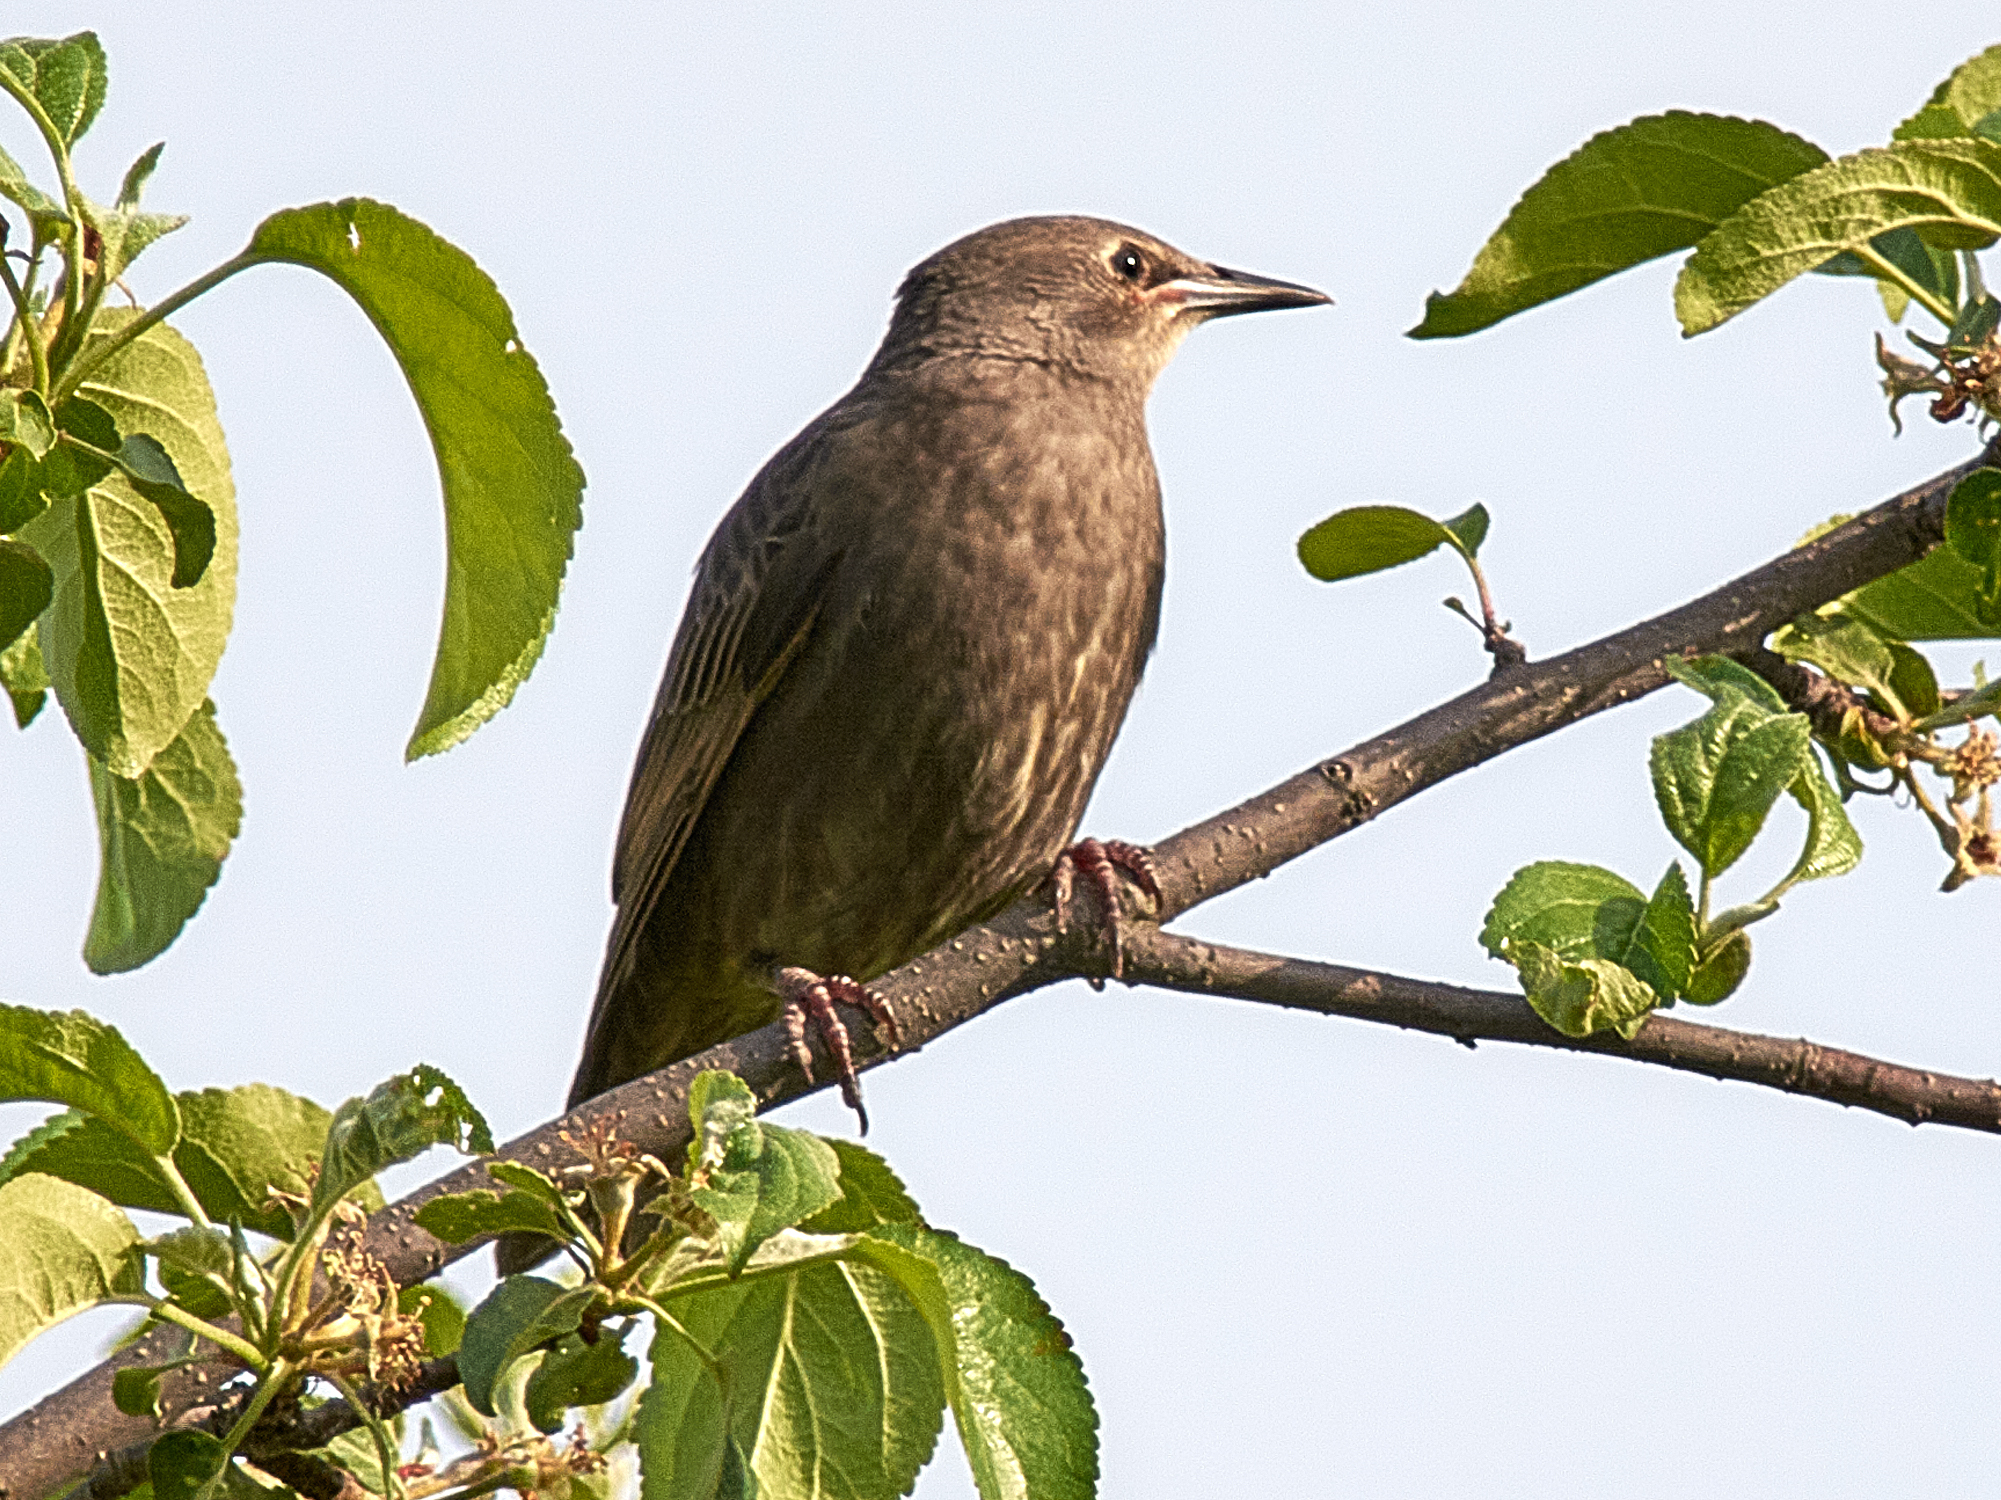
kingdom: Animalia
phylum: Chordata
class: Aves
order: Passeriformes
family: Sturnidae
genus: Sturnus
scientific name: Sturnus vulgaris
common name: Common starling
